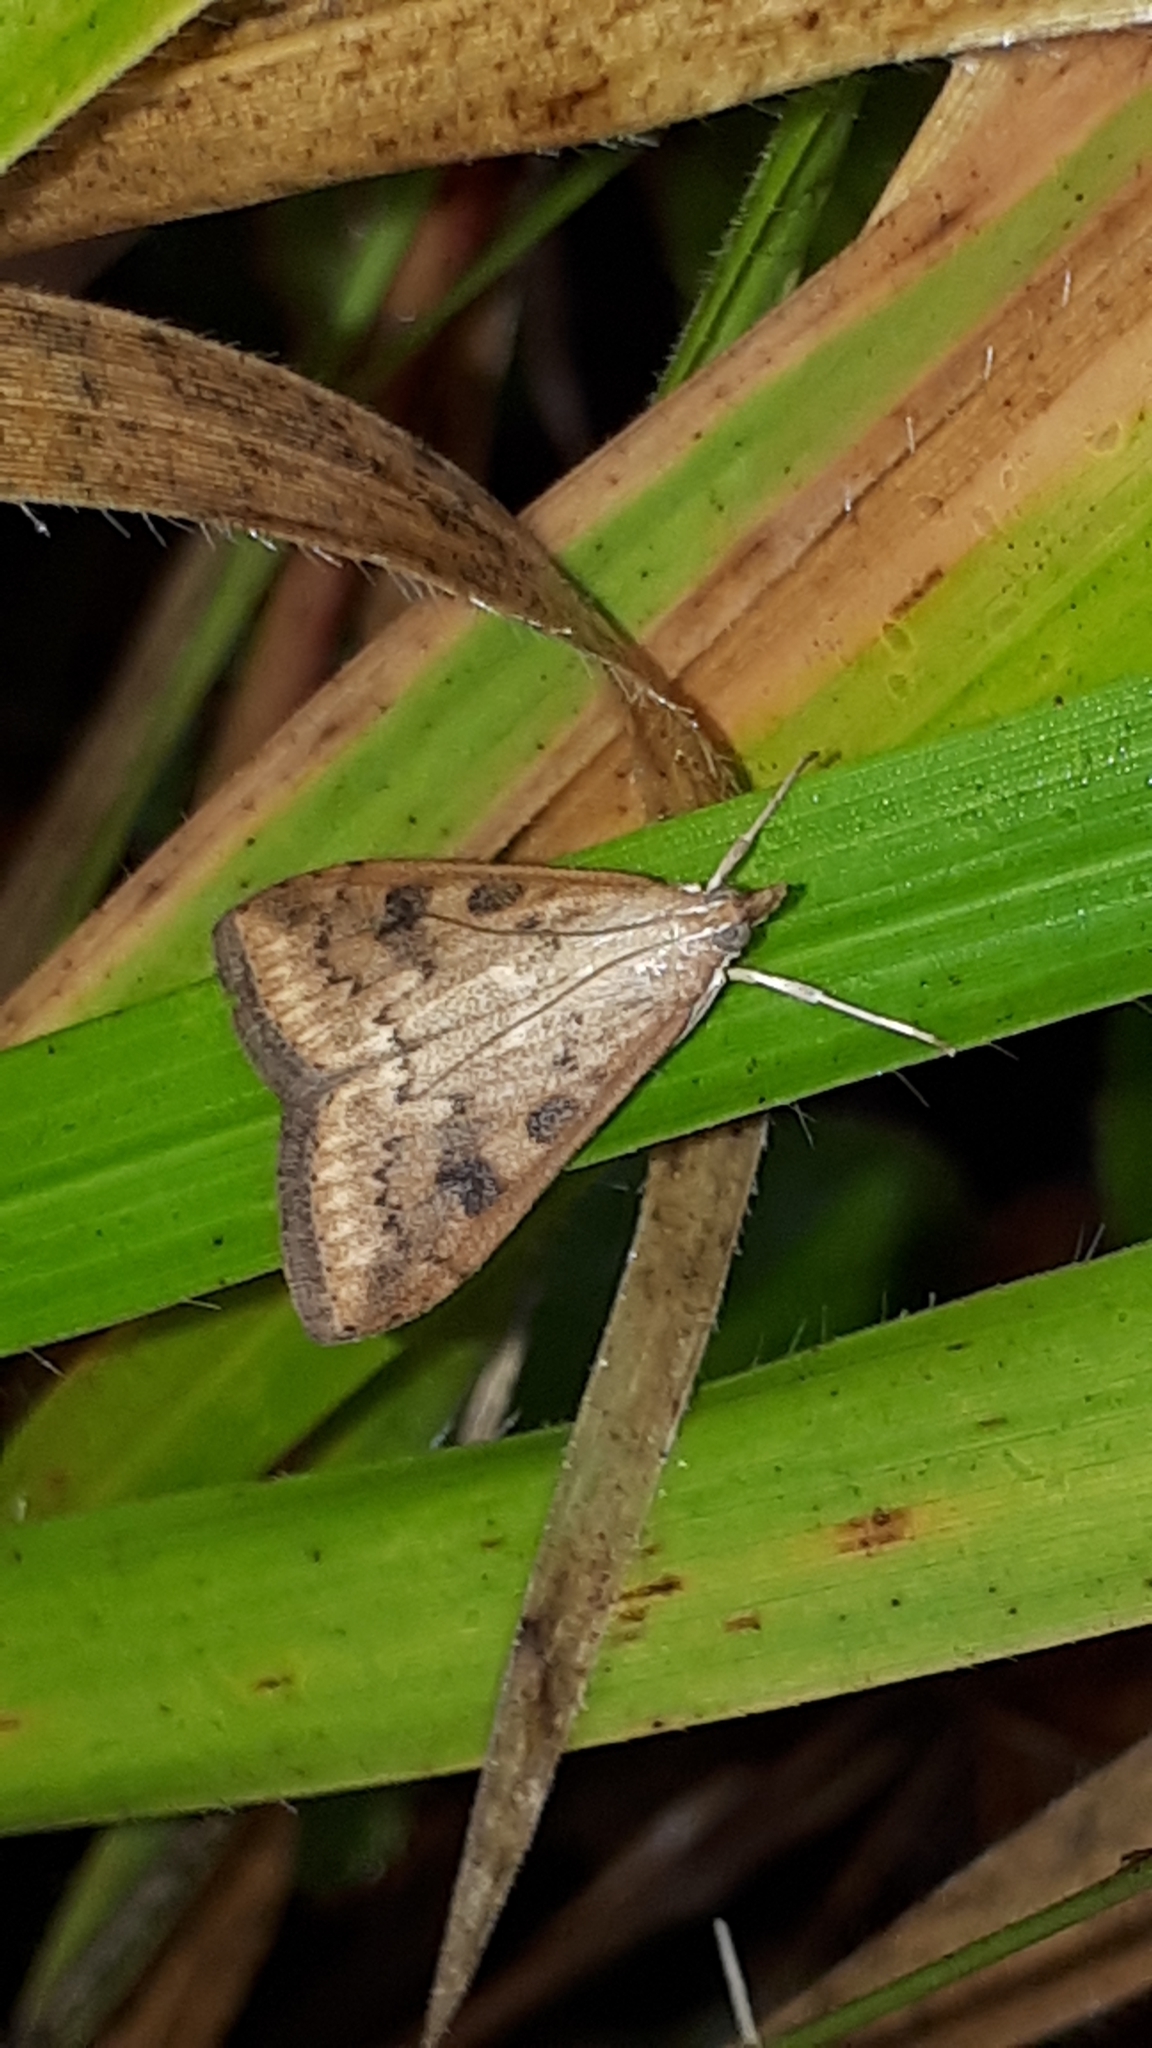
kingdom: Animalia
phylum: Arthropoda
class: Insecta
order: Lepidoptera
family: Crambidae
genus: Udea
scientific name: Udea ferrugalis
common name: Rusty dot
